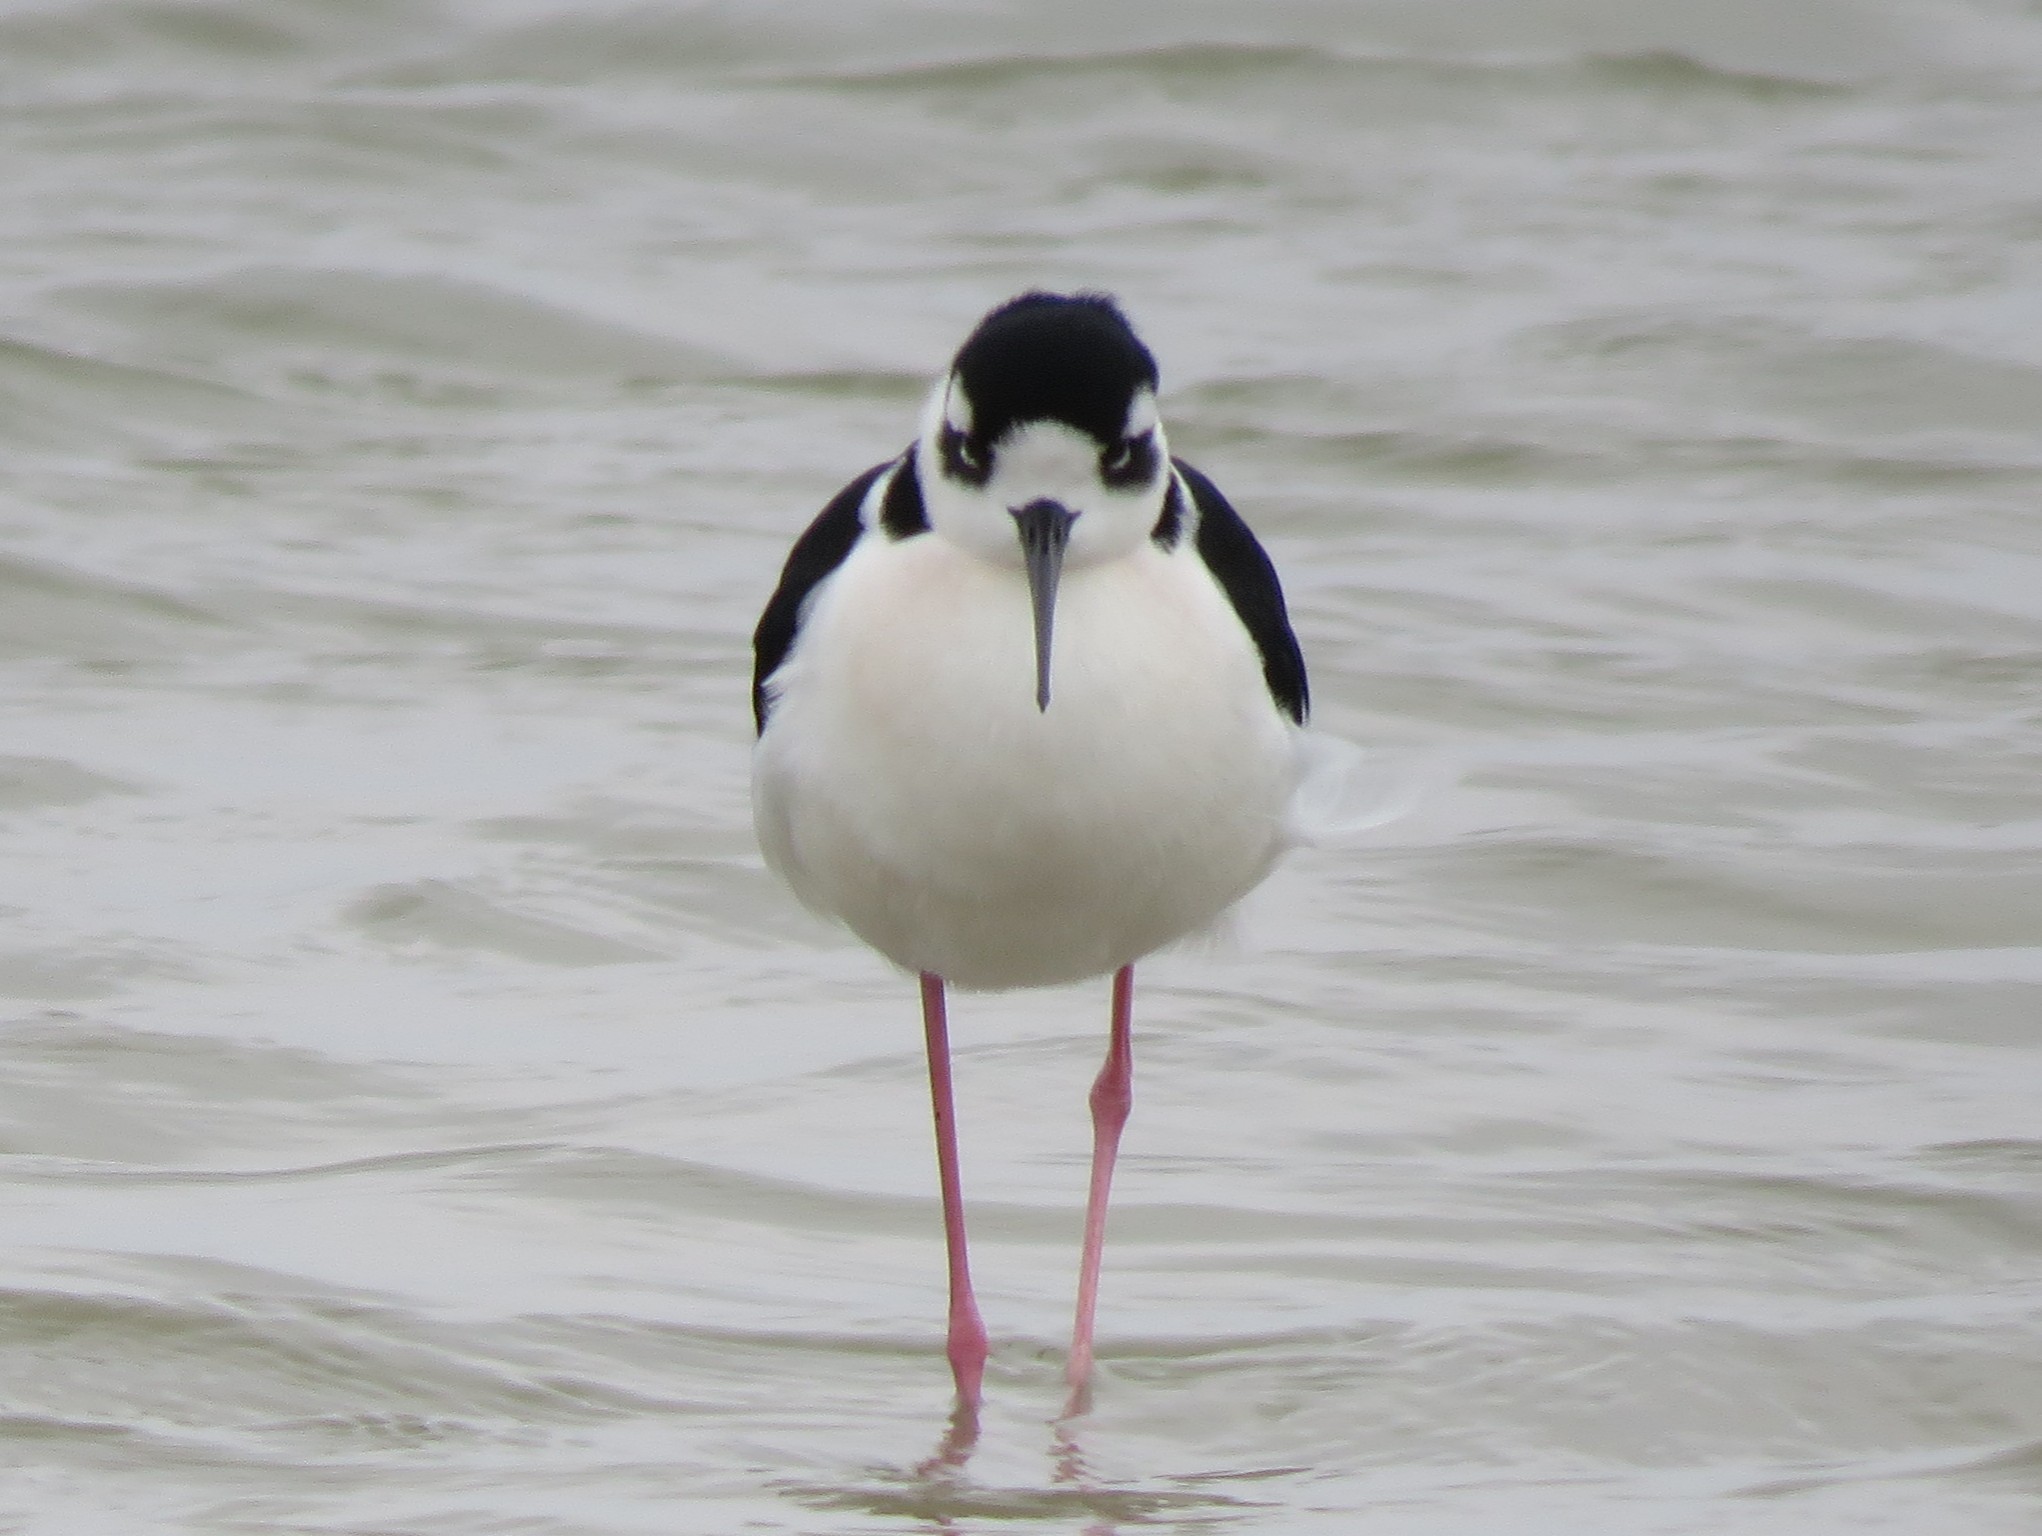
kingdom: Animalia
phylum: Chordata
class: Aves
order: Charadriiformes
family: Recurvirostridae
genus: Himantopus
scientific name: Himantopus mexicanus
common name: Black-necked stilt
